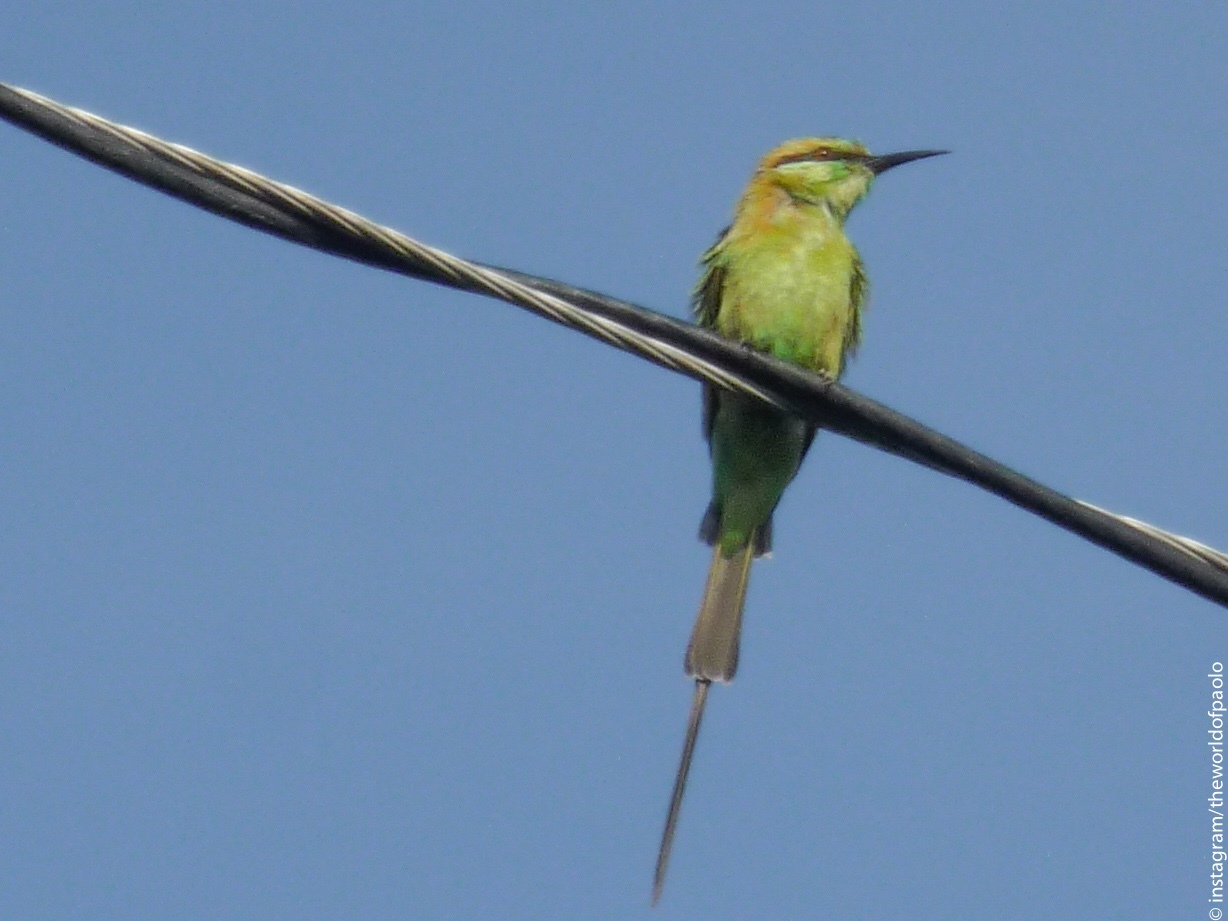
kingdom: Animalia
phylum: Chordata
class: Aves
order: Coraciiformes
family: Meropidae
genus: Merops
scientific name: Merops orientalis
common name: Green bee-eater
